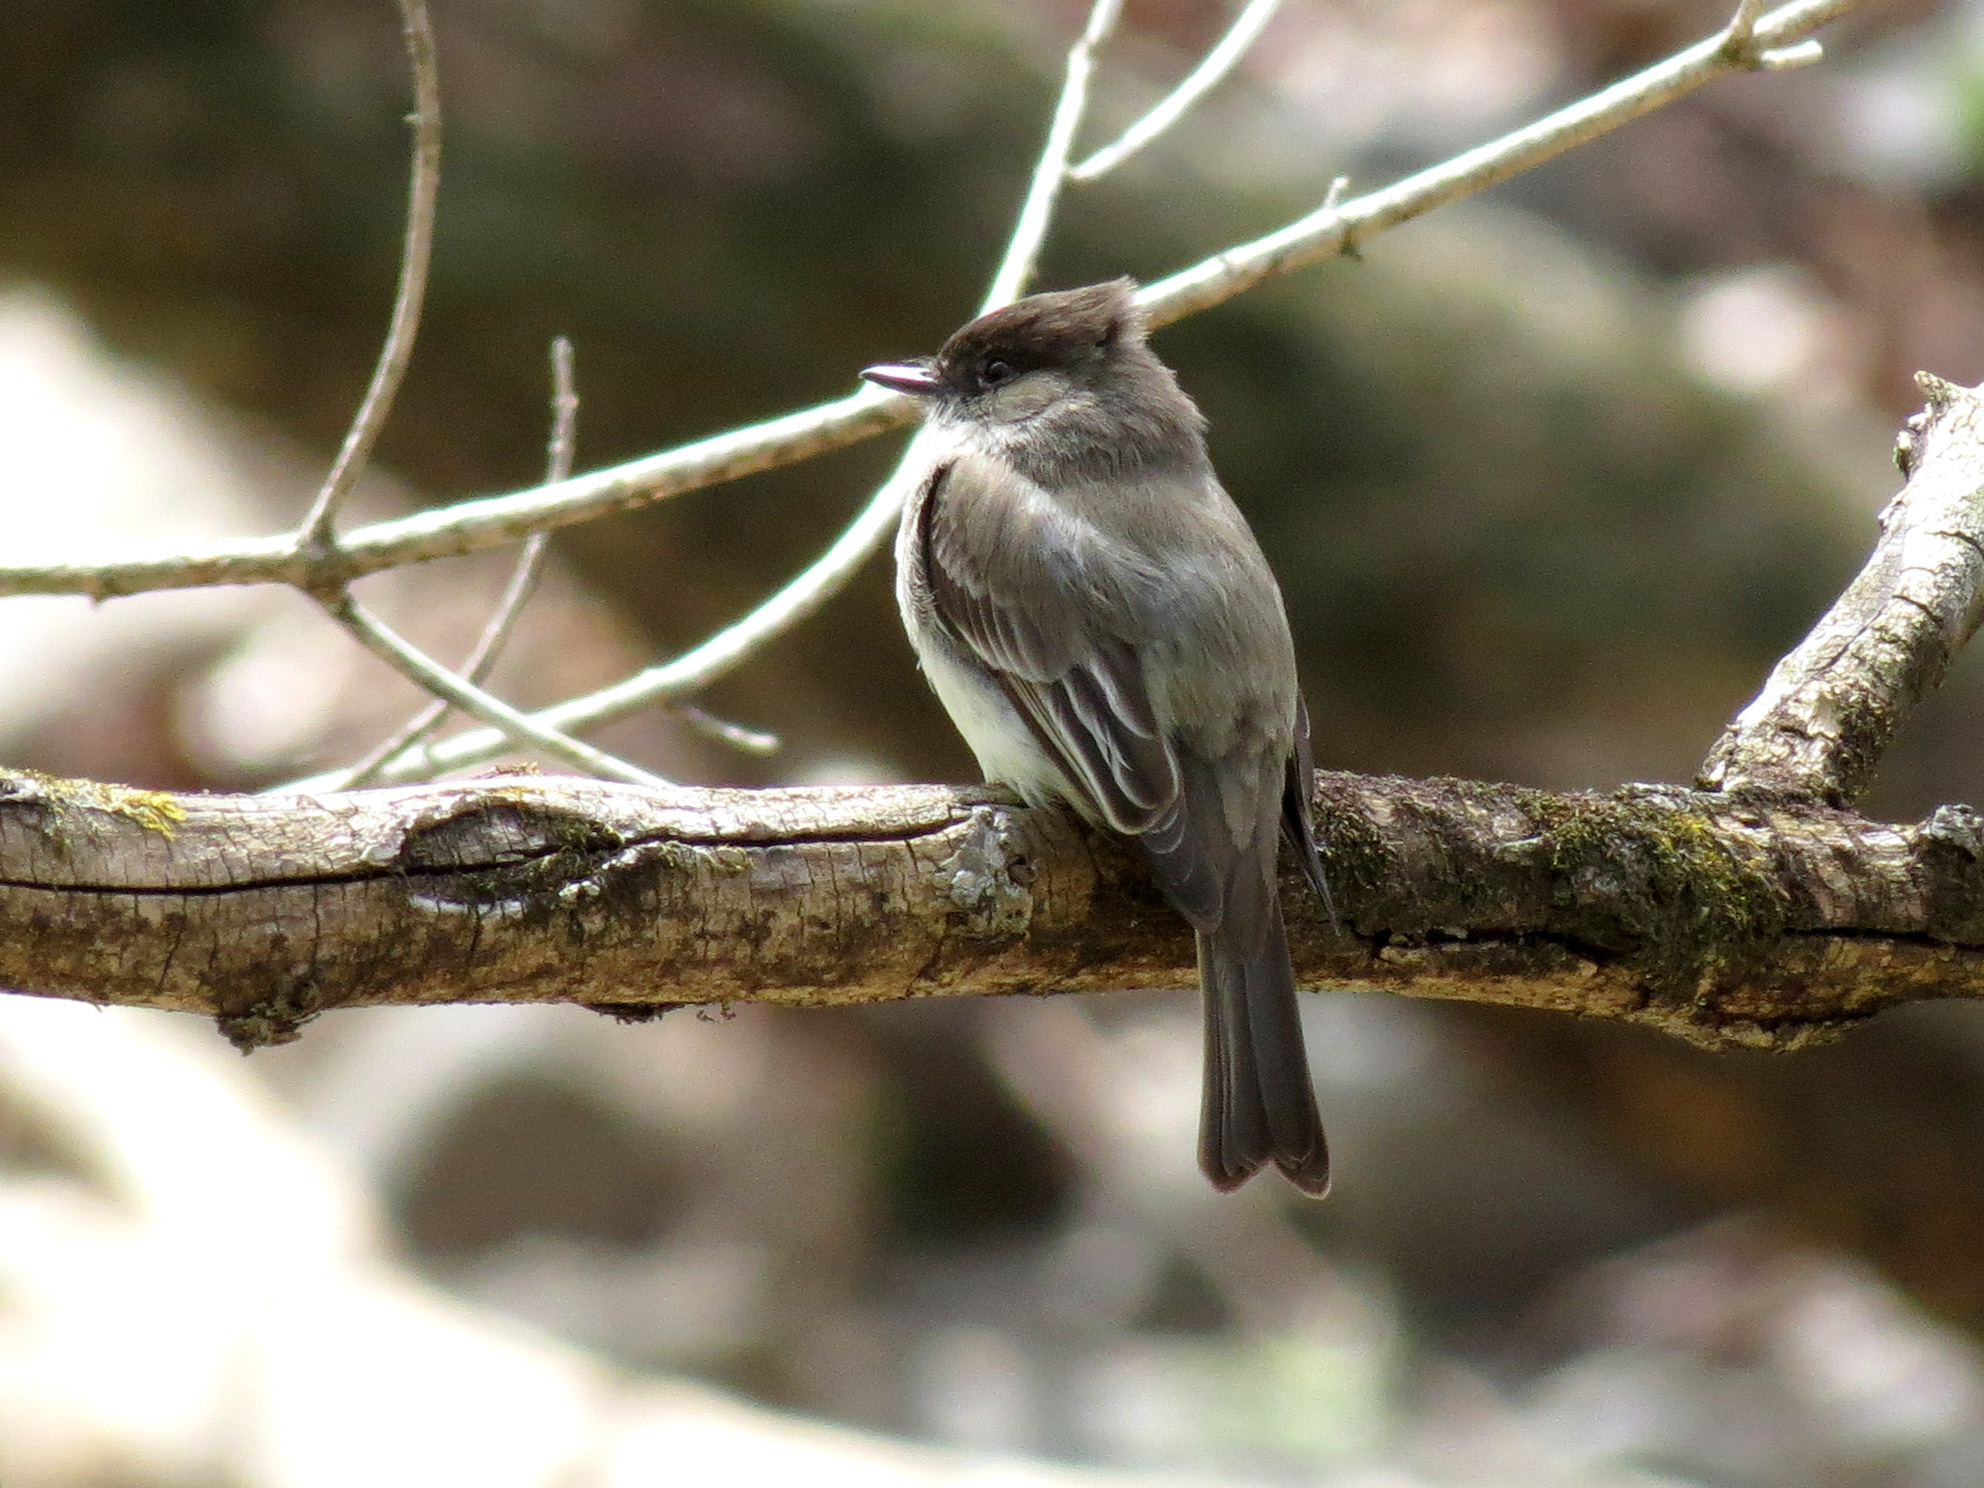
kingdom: Animalia
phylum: Chordata
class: Aves
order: Passeriformes
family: Tyrannidae
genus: Sayornis
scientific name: Sayornis phoebe
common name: Eastern phoebe
